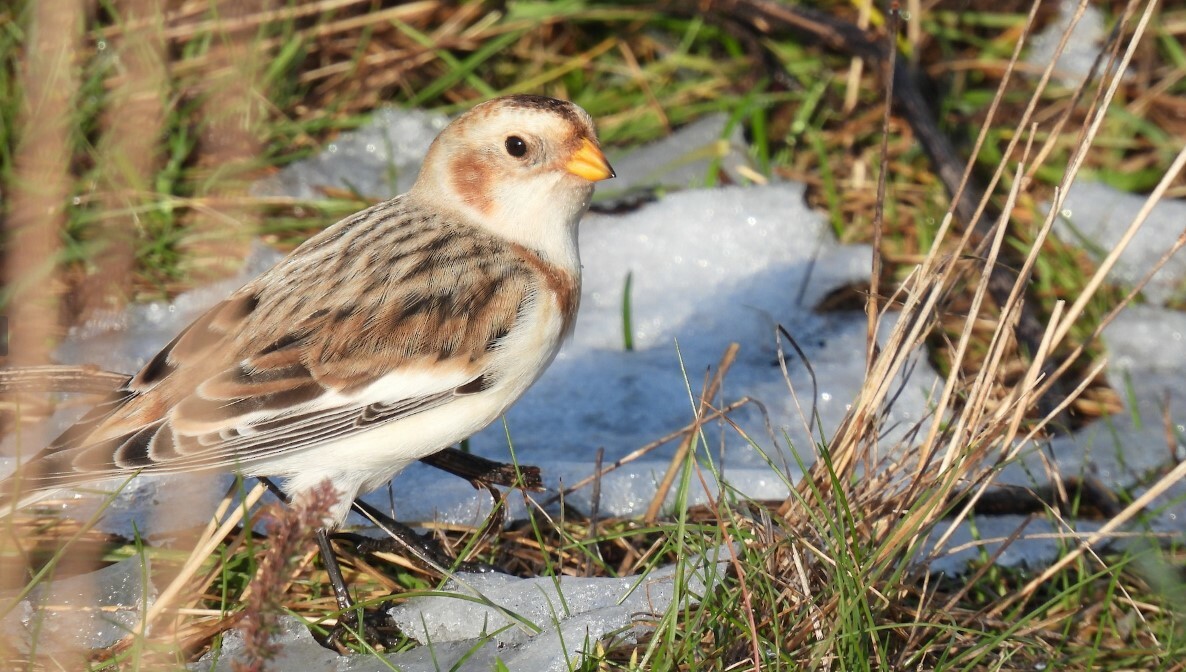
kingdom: Animalia
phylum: Chordata
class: Aves
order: Passeriformes
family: Calcariidae
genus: Plectrophenax
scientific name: Plectrophenax nivalis
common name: Snow bunting
